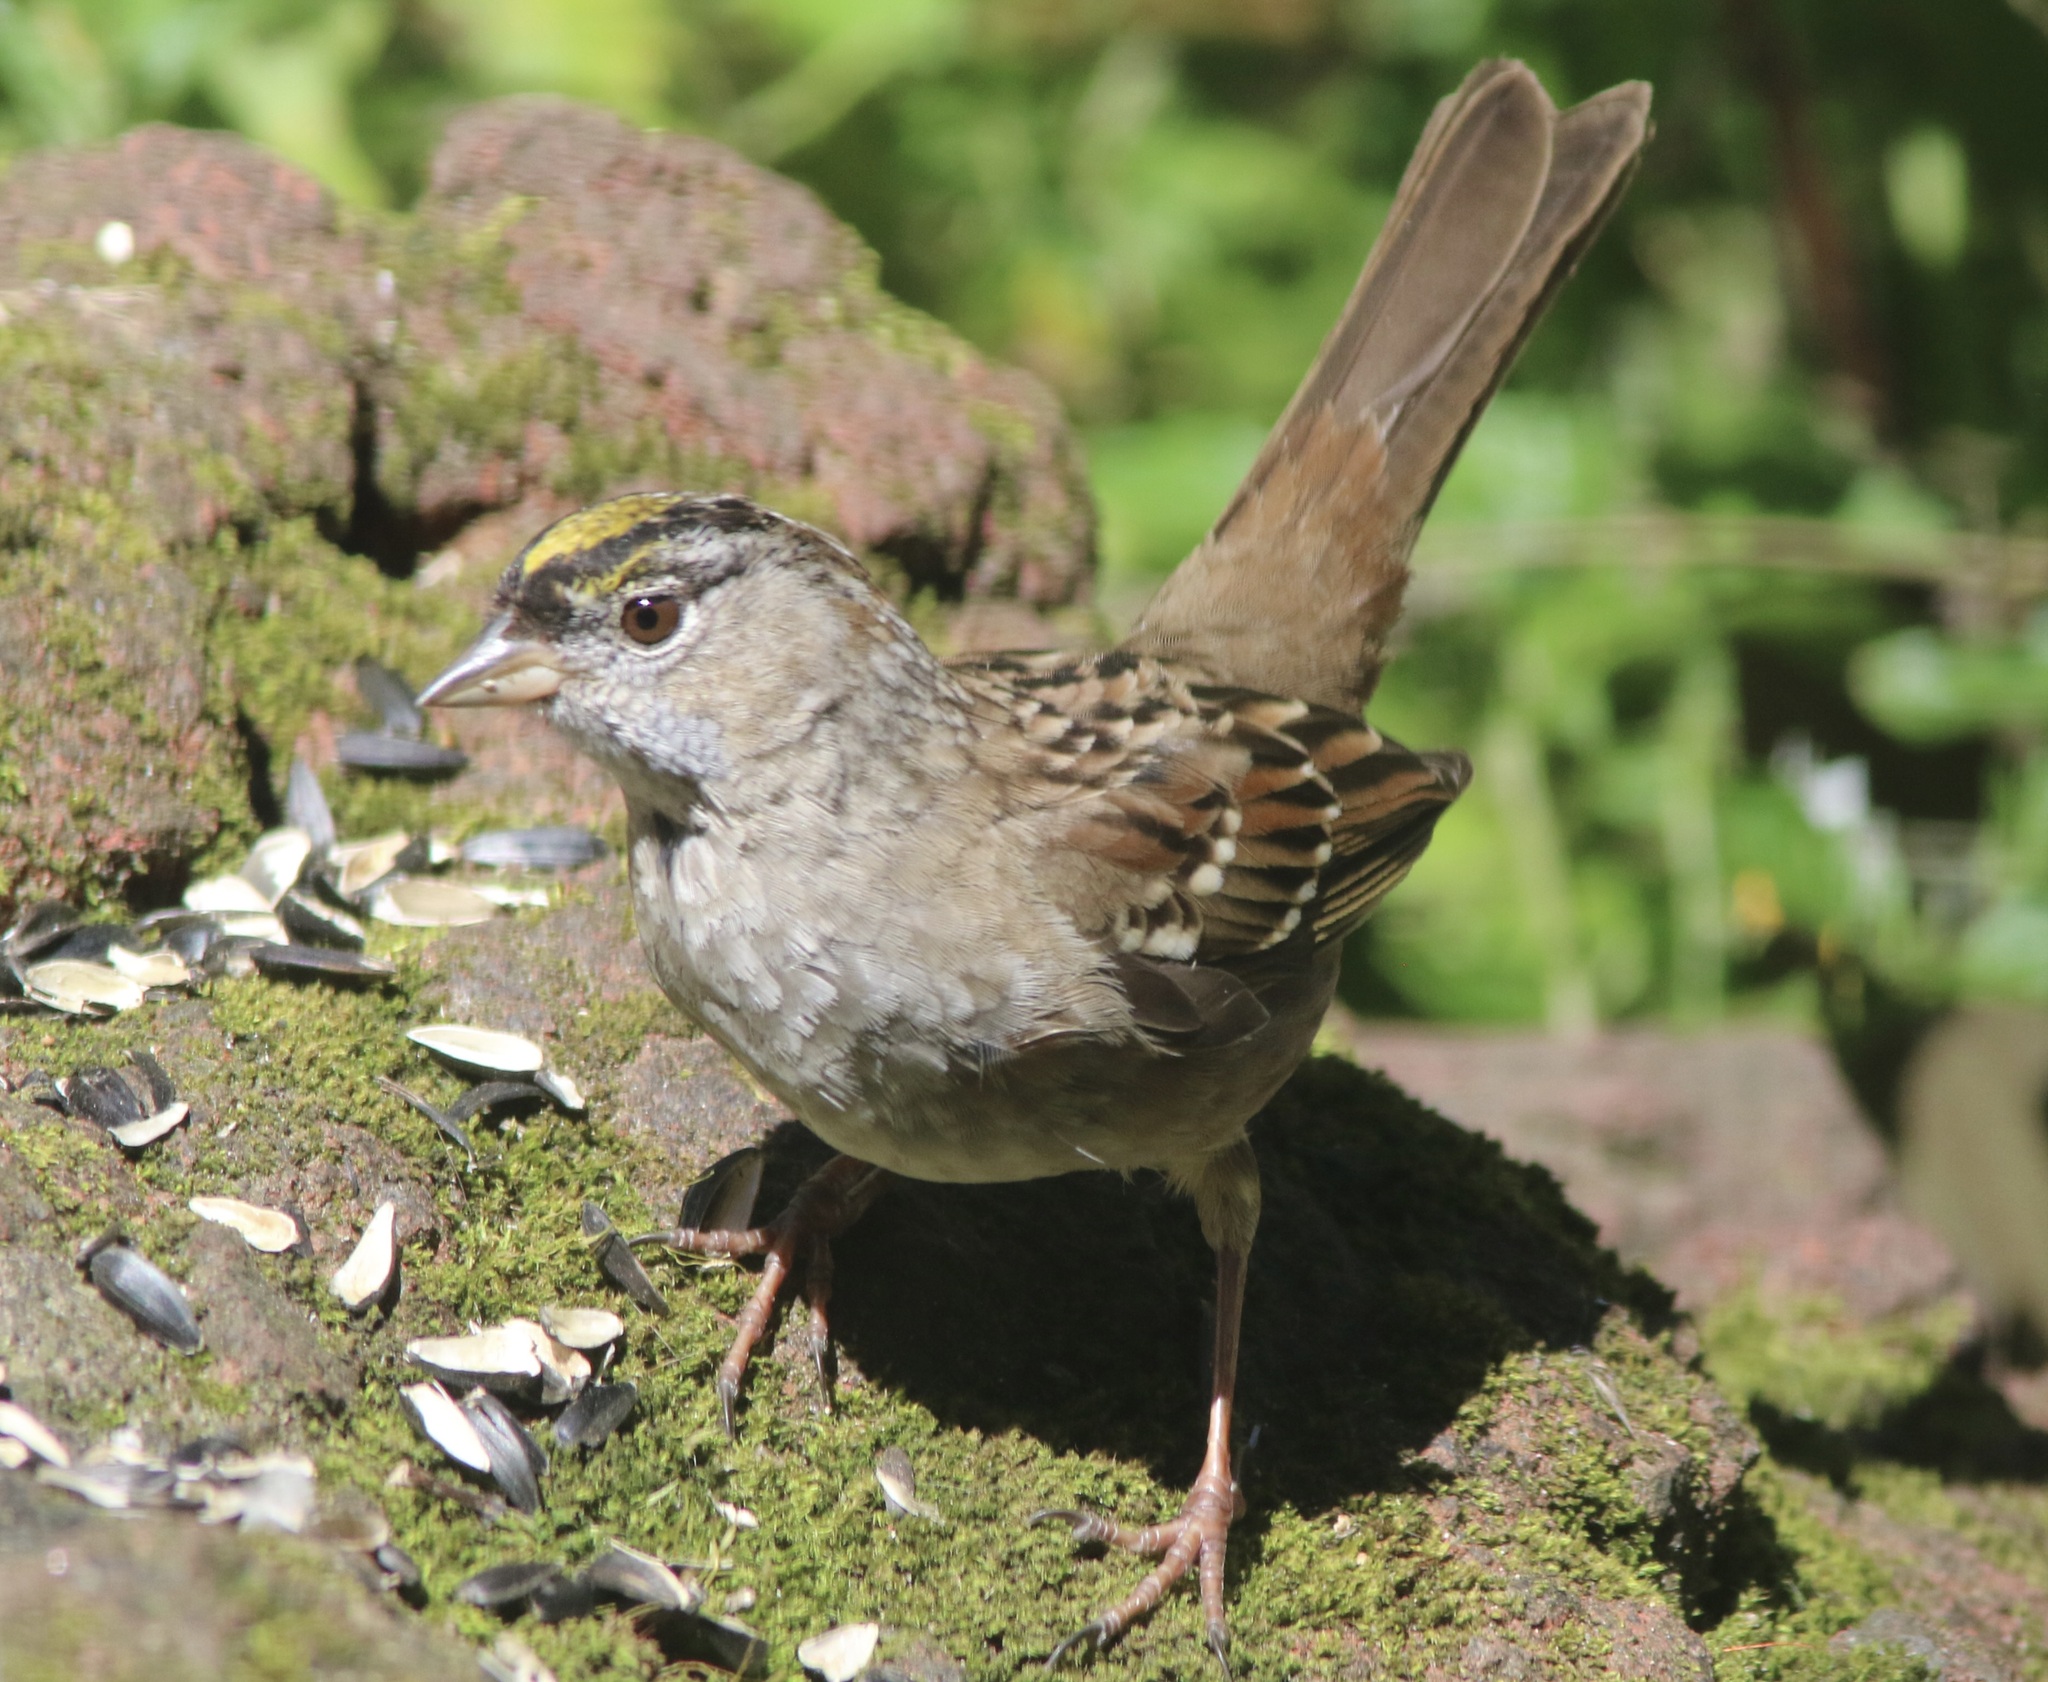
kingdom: Animalia
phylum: Chordata
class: Aves
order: Passeriformes
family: Passerellidae
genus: Zonotrichia
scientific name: Zonotrichia atricapilla
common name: Golden-crowned sparrow
